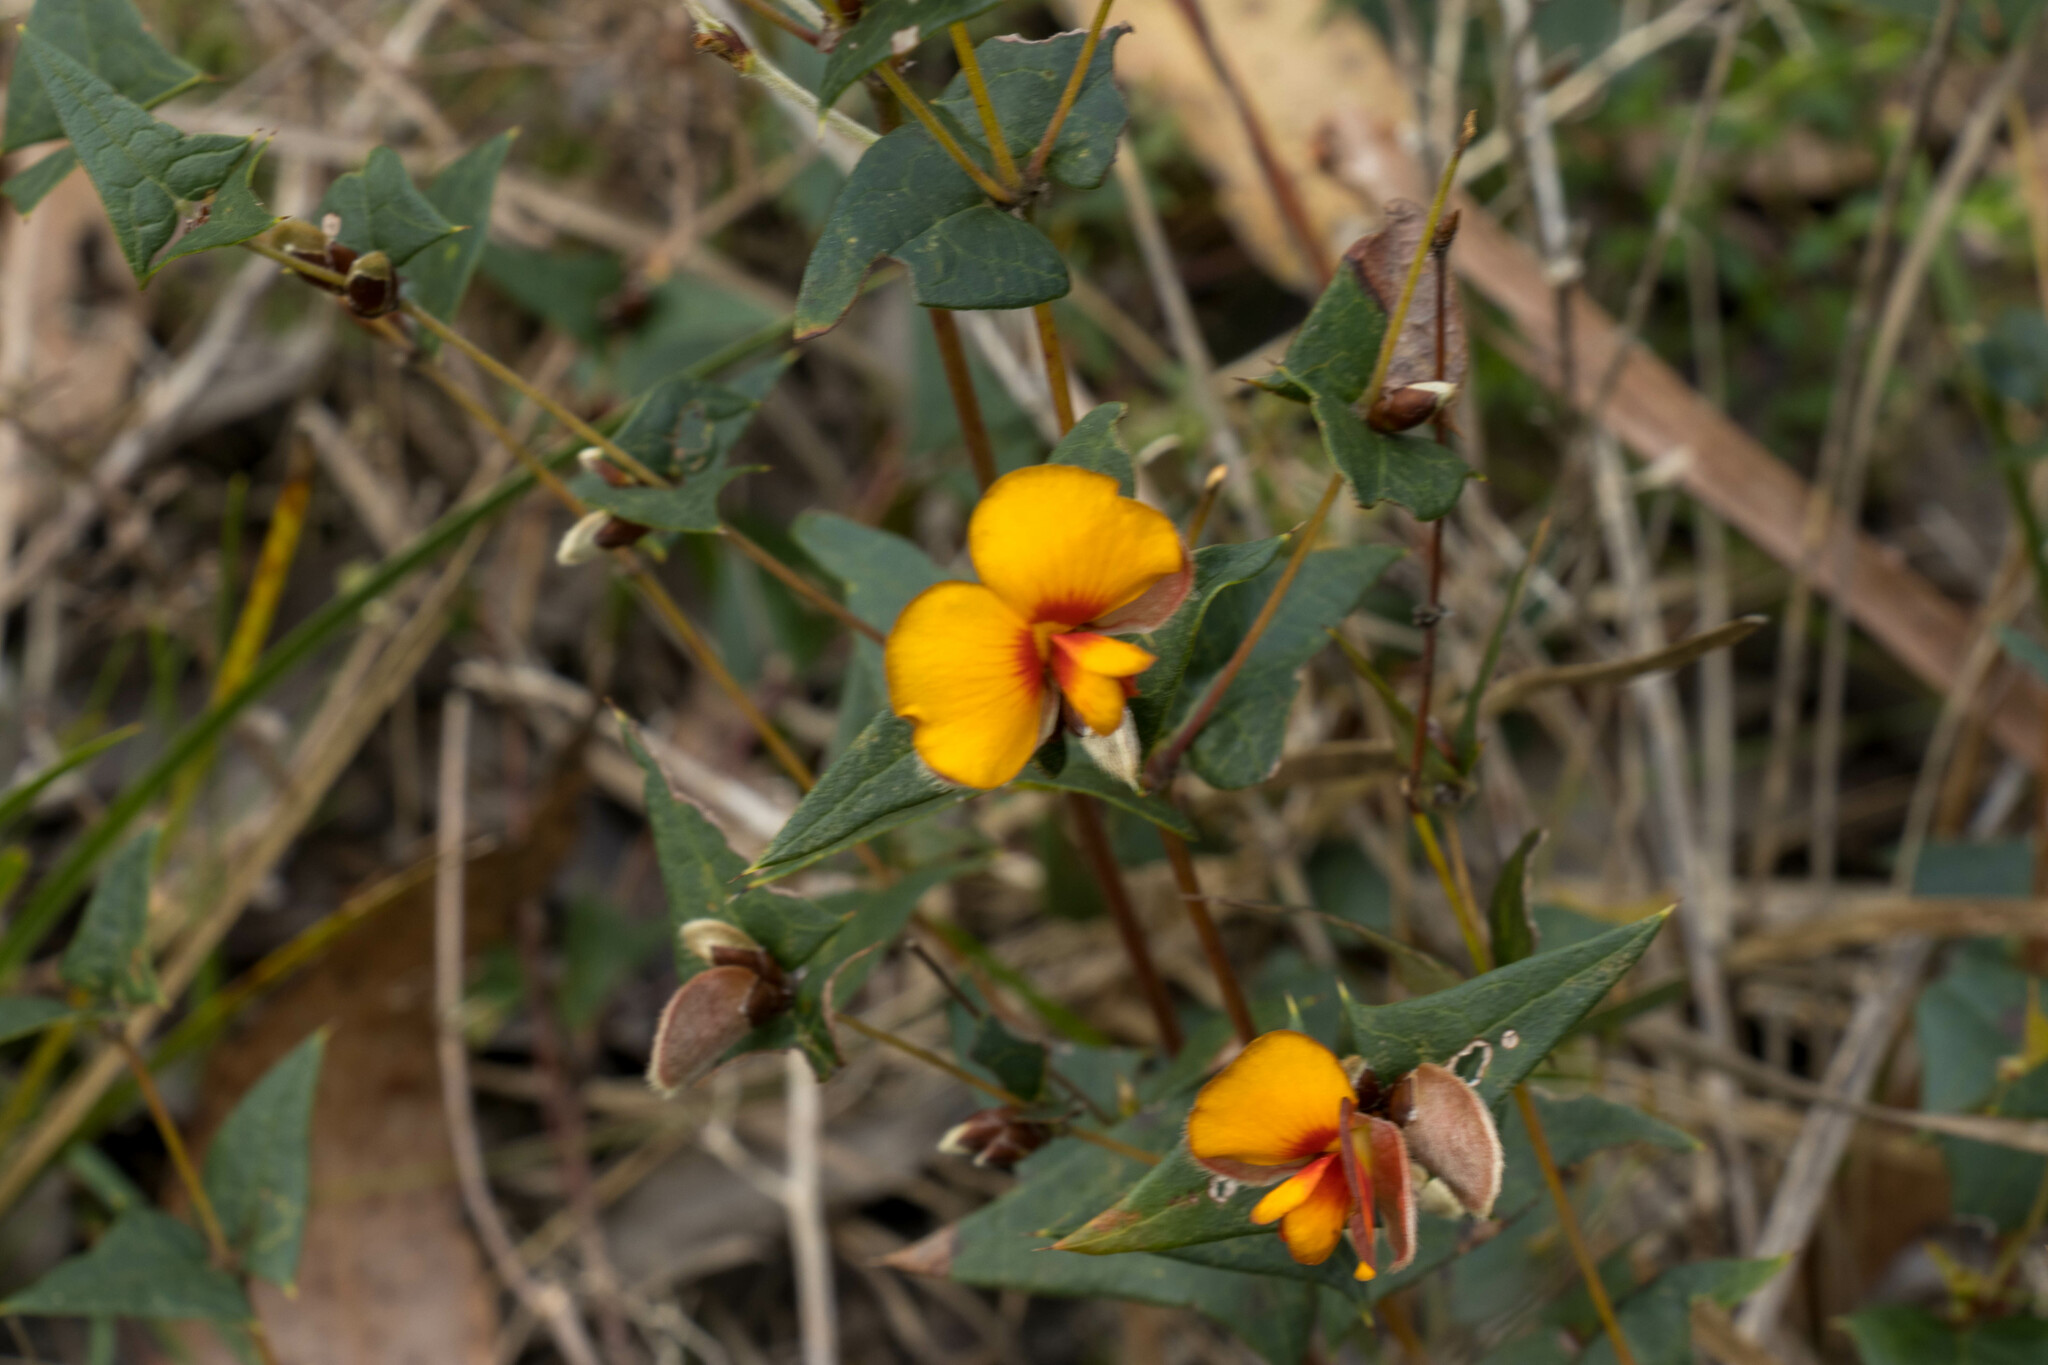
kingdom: Plantae
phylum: Tracheophyta
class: Magnoliopsida
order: Fabales
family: Fabaceae
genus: Platylobium
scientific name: Platylobium obtusangulum
